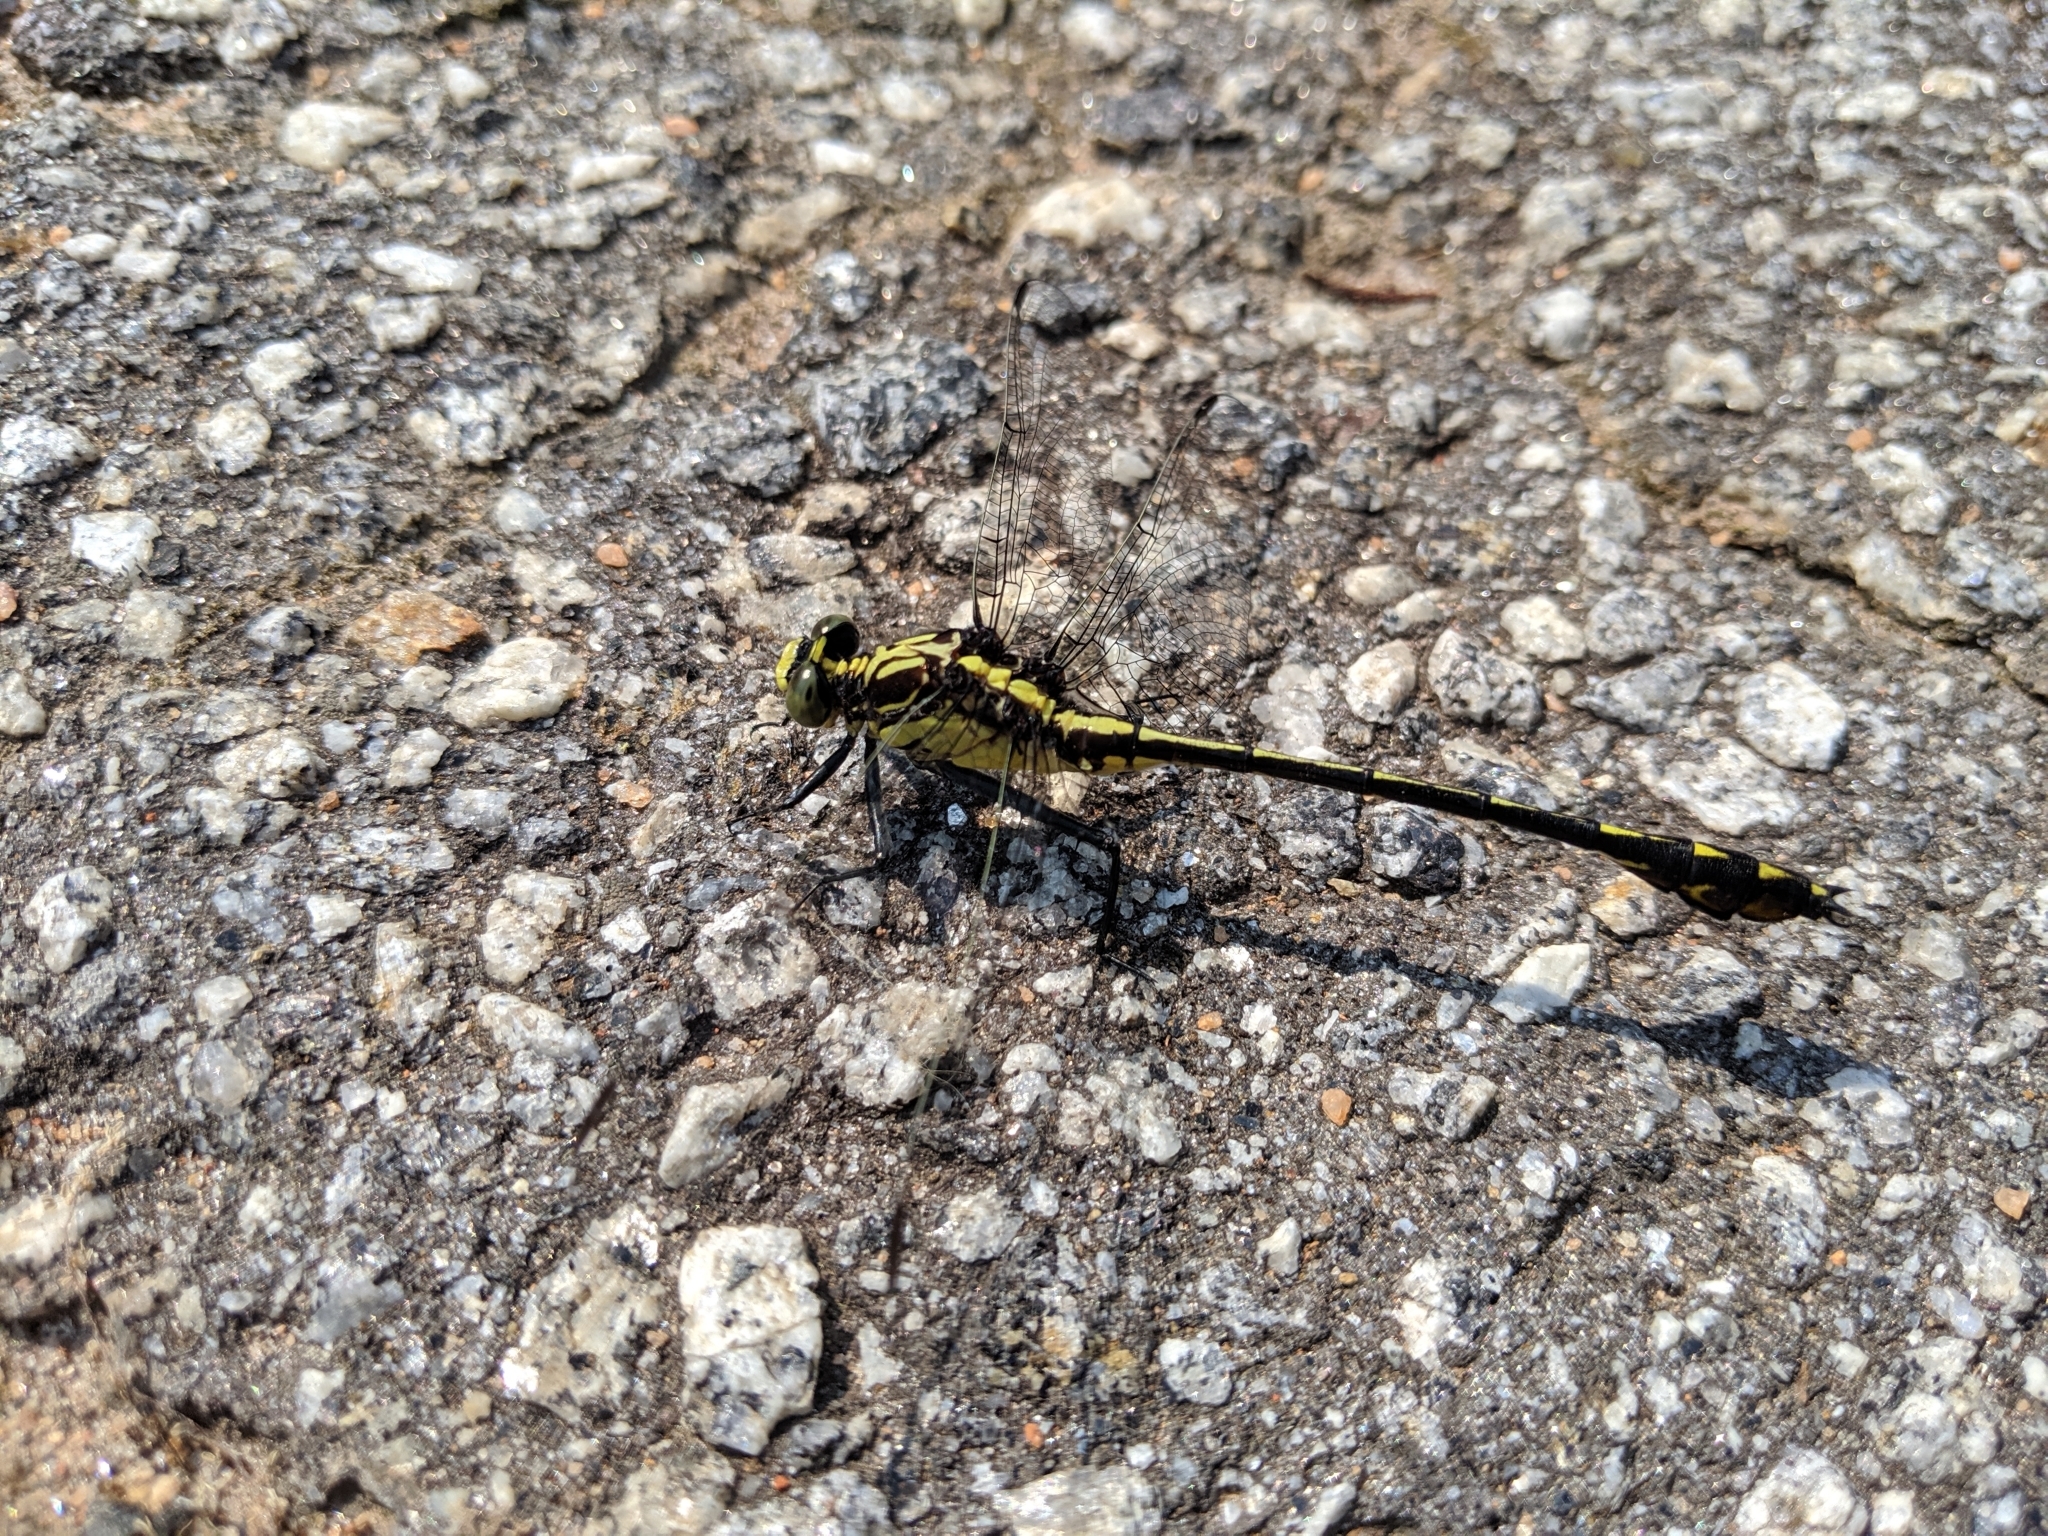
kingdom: Animalia
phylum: Arthropoda
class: Insecta
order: Odonata
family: Gomphidae
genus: Dromogomphus
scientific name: Dromogomphus spinosus
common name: Black-shouldered spinyleg
